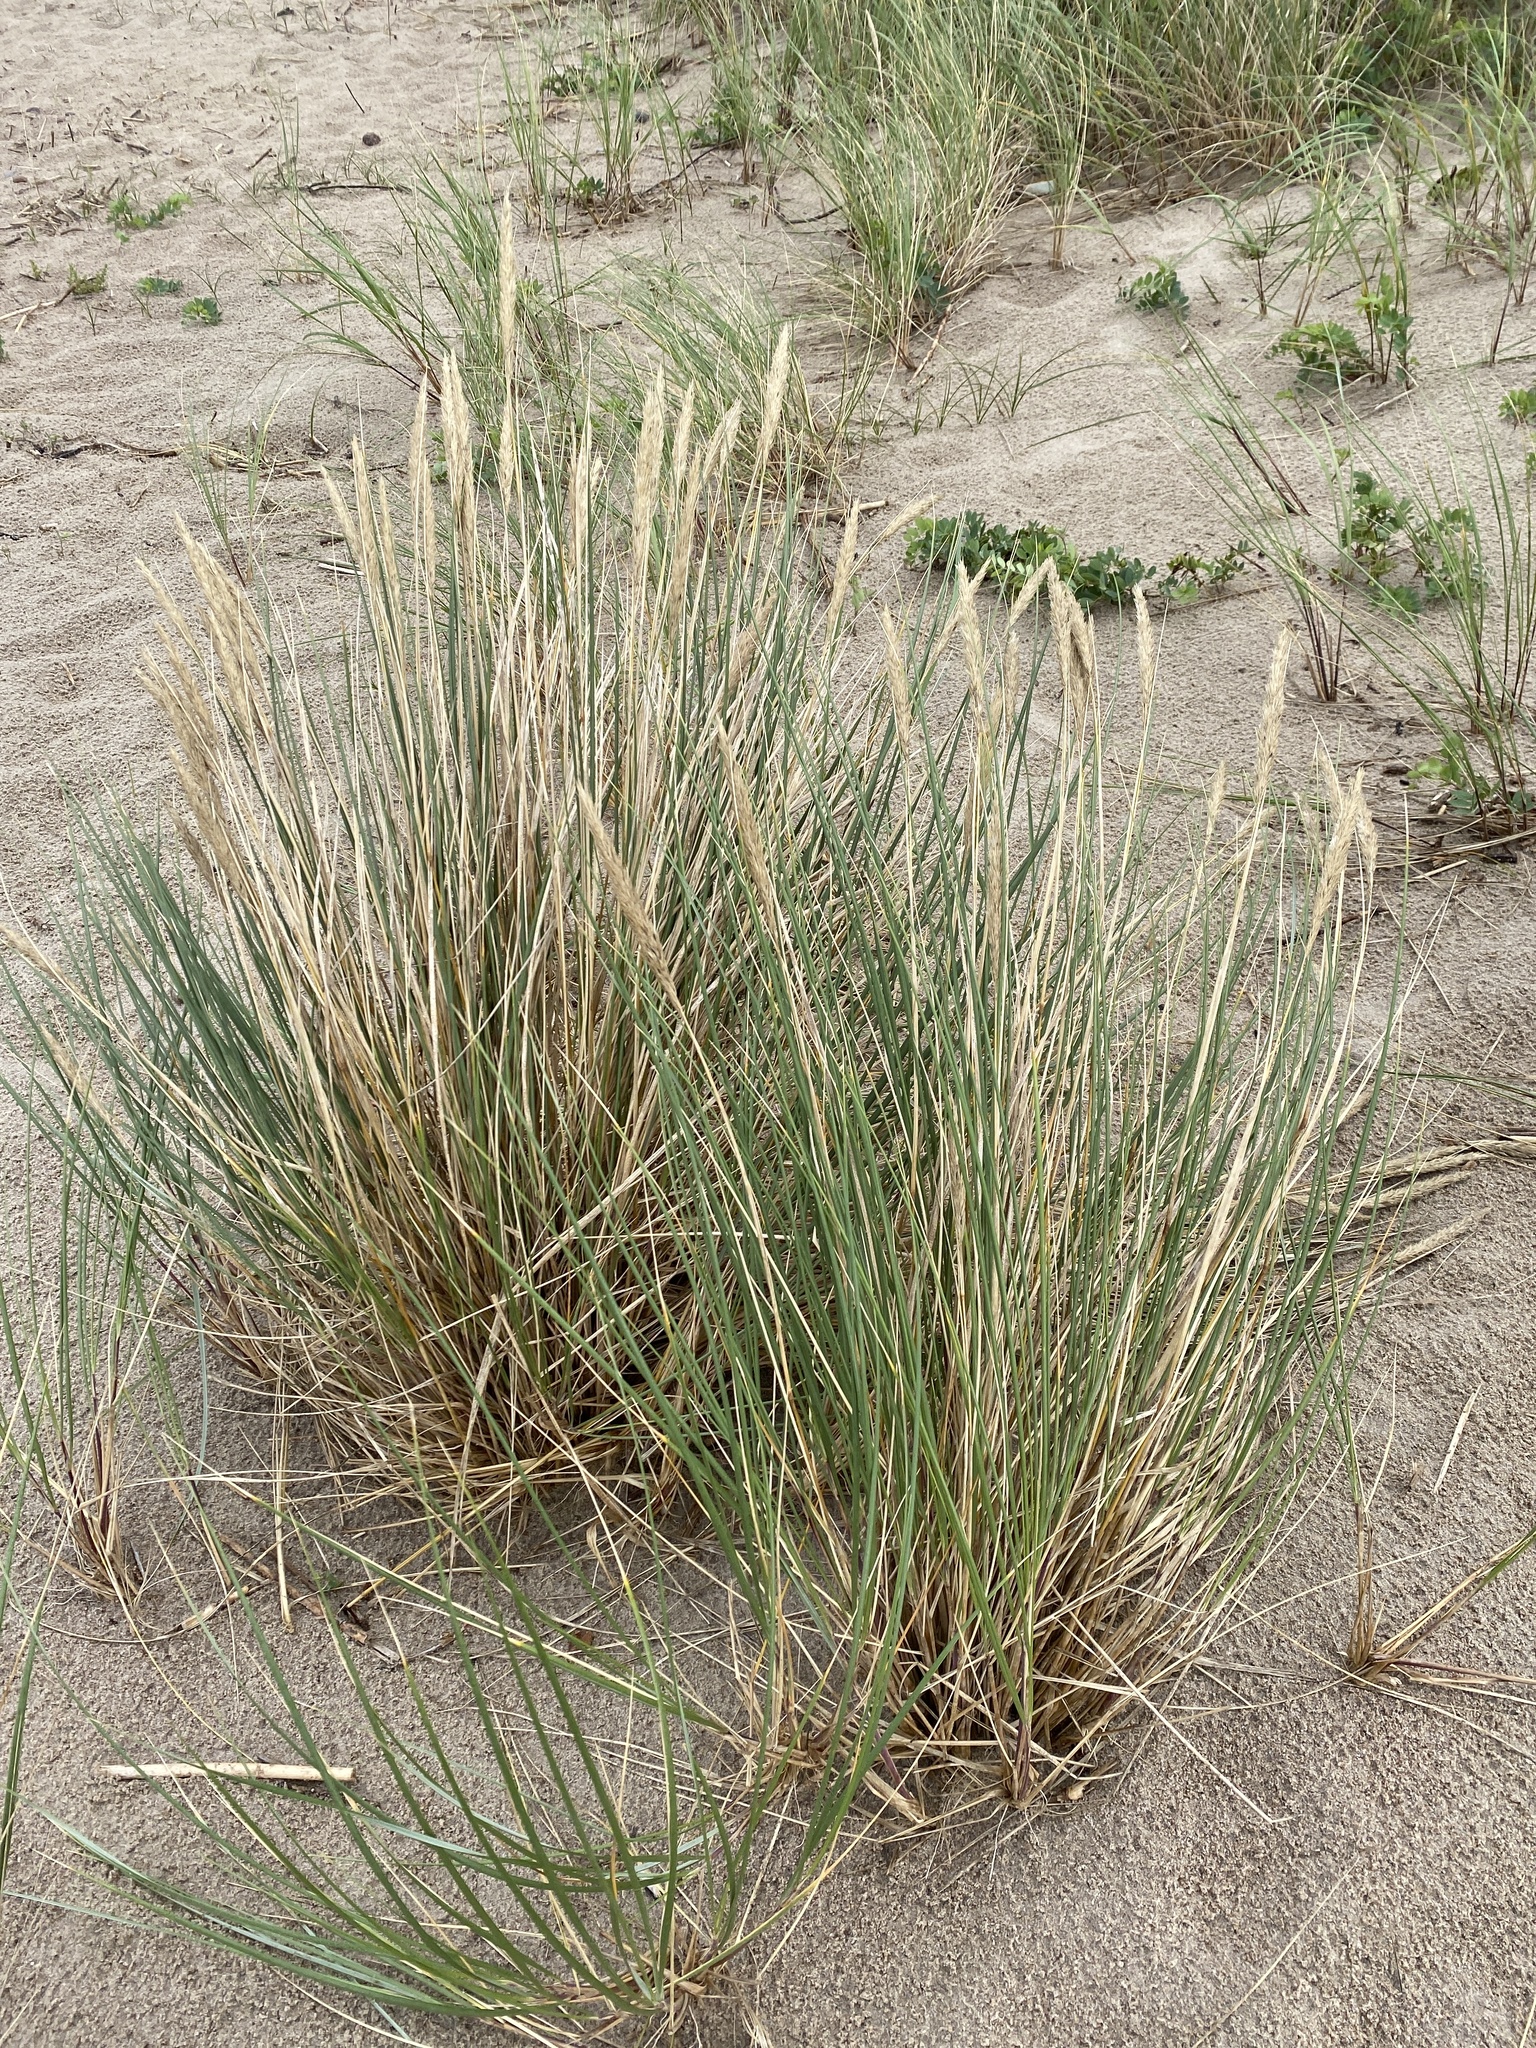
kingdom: Plantae
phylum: Tracheophyta
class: Liliopsida
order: Poales
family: Poaceae
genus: Calamagrostis
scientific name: Calamagrostis arenaria
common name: European beachgrass
